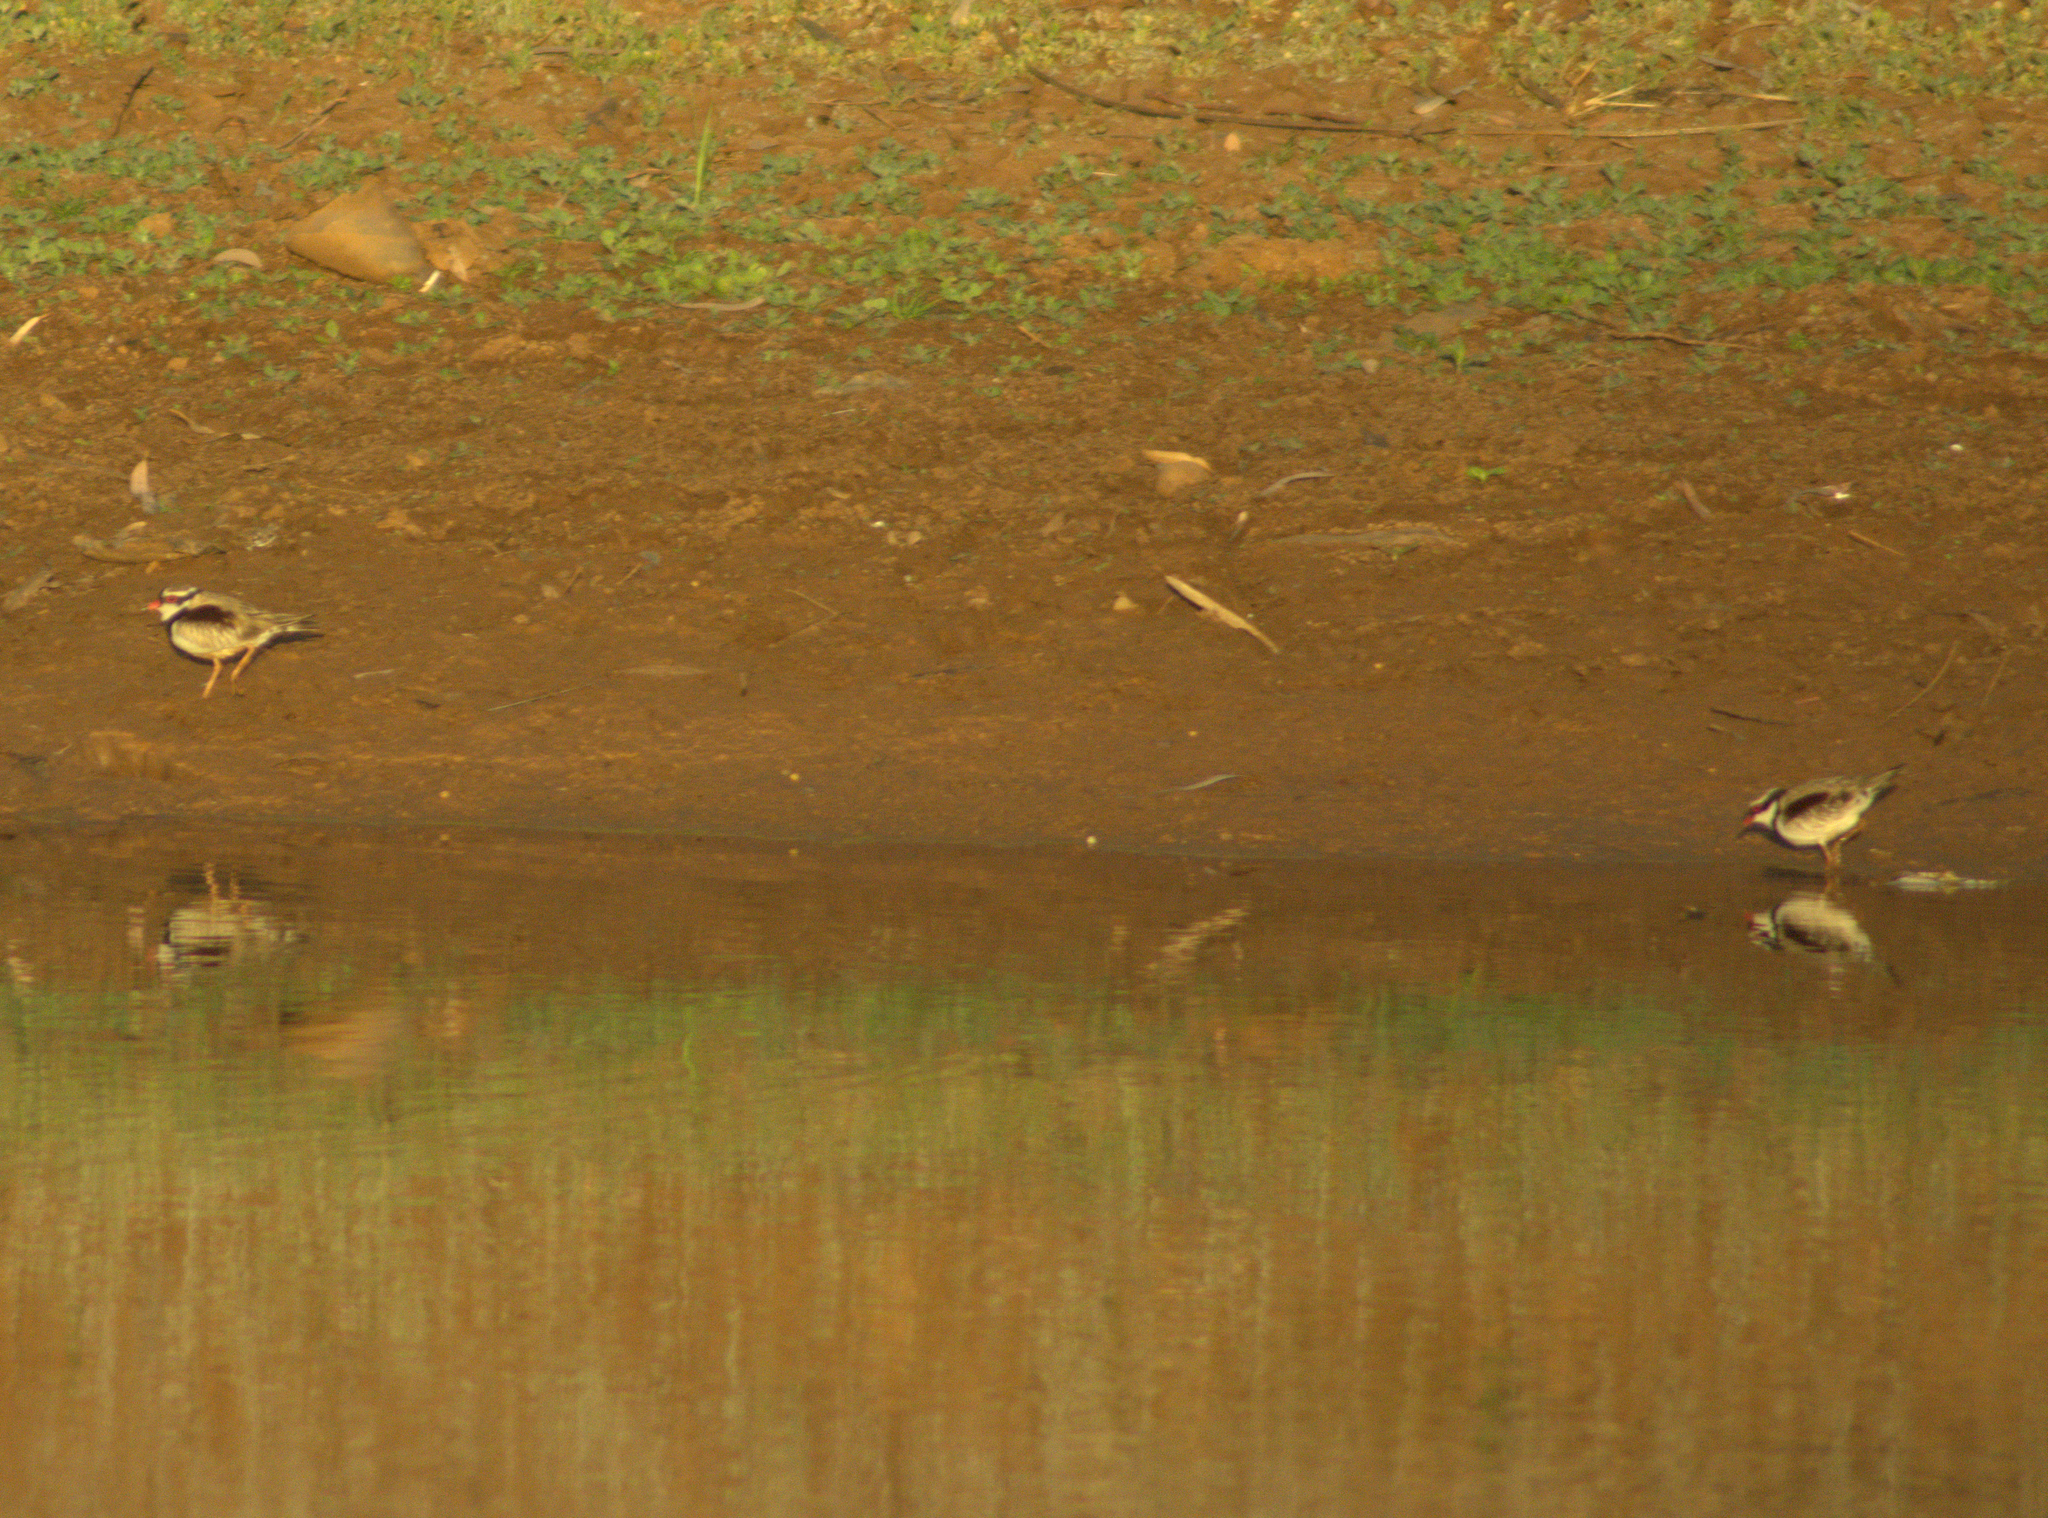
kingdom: Animalia
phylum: Chordata
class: Aves
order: Charadriiformes
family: Charadriidae
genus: Elseyornis
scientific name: Elseyornis melanops
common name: Black-fronted dotterel
